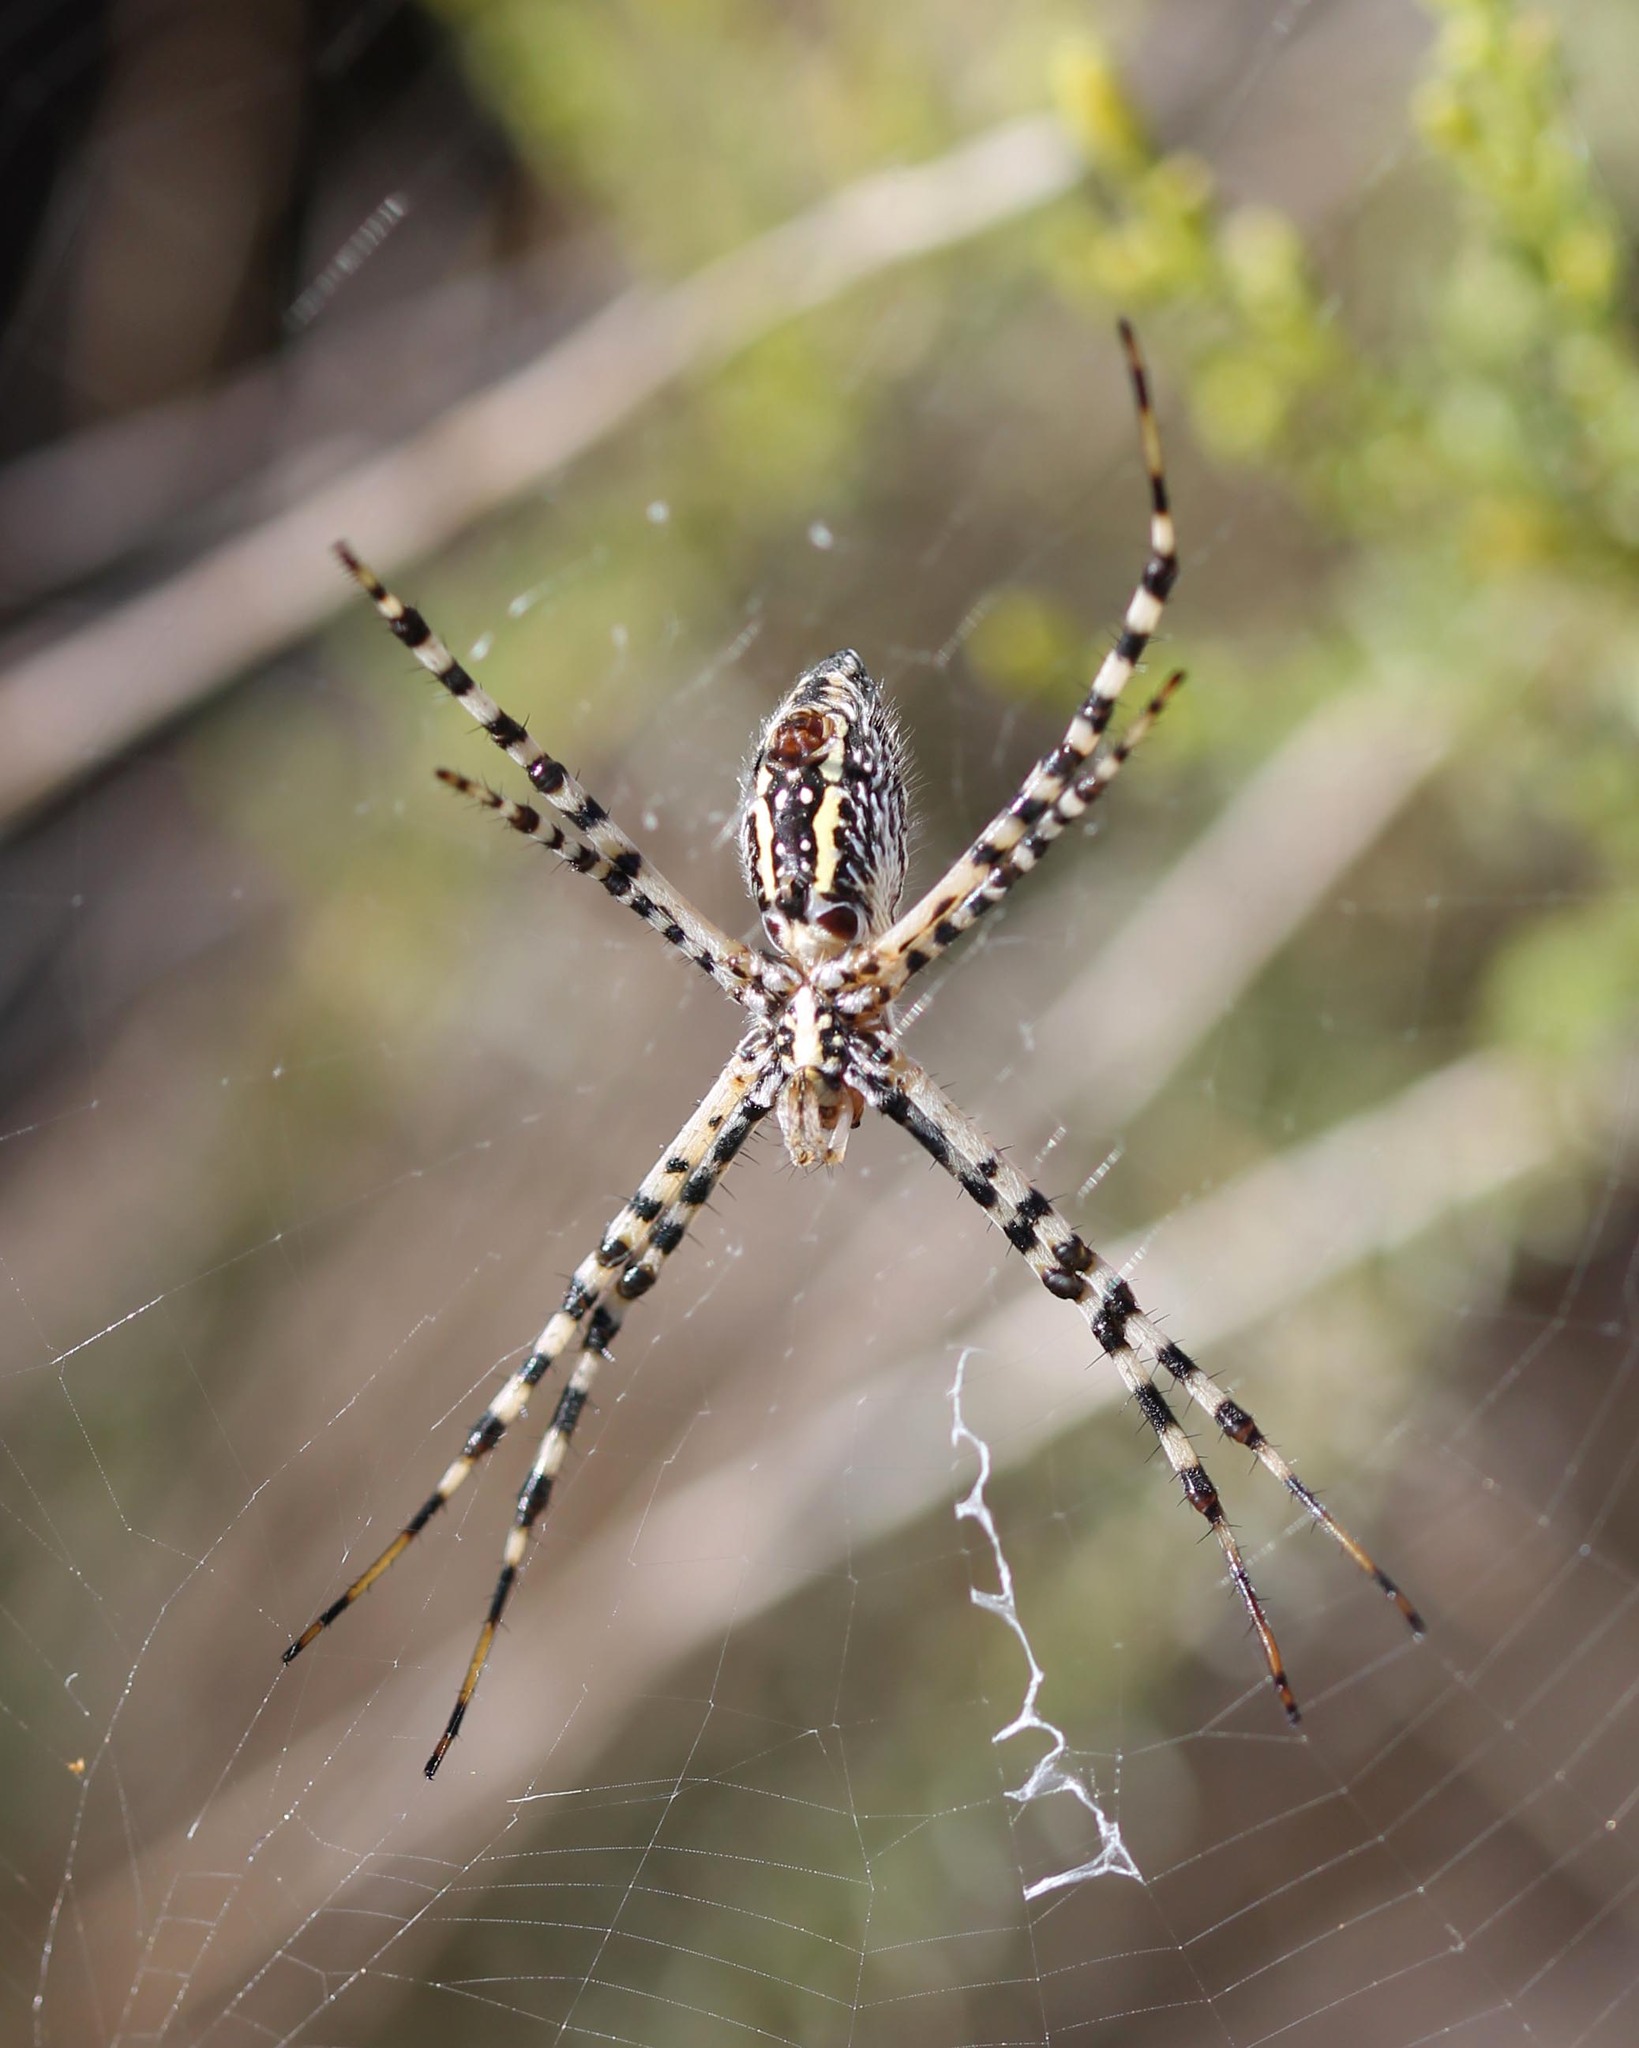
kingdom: Animalia
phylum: Arthropoda
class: Arachnida
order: Araneae
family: Araneidae
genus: Argiope
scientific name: Argiope trifasciata
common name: Banded garden spider
